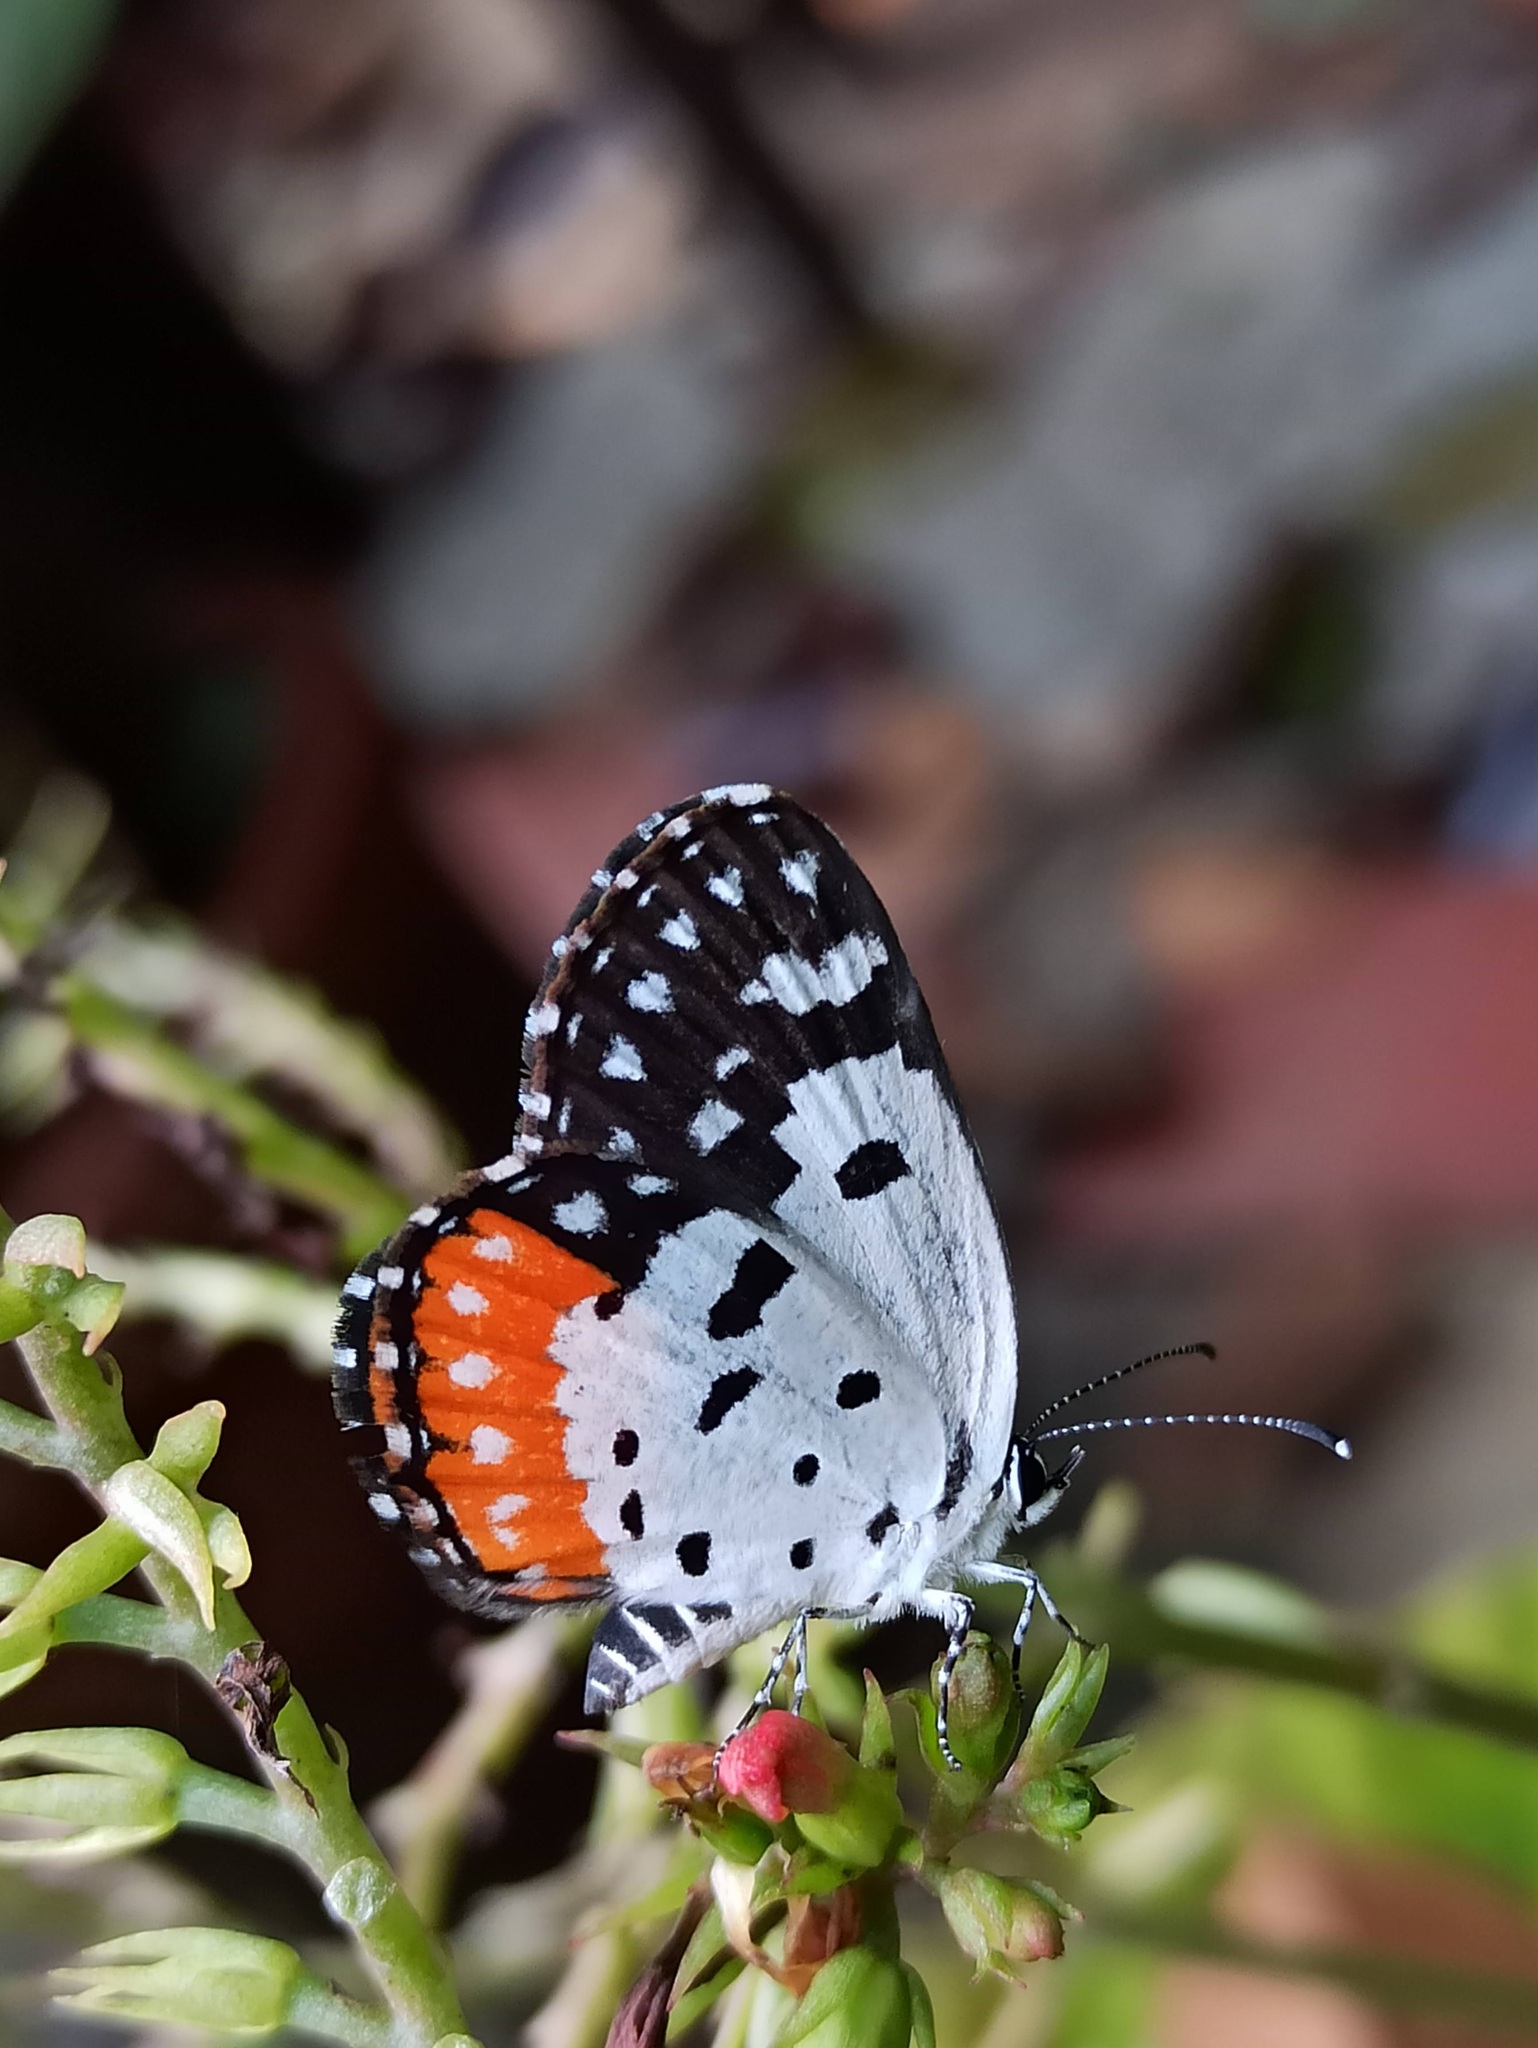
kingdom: Animalia
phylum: Arthropoda
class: Insecta
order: Lepidoptera
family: Lycaenidae
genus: Talicada
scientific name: Talicada nyseus
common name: Red pierrot
